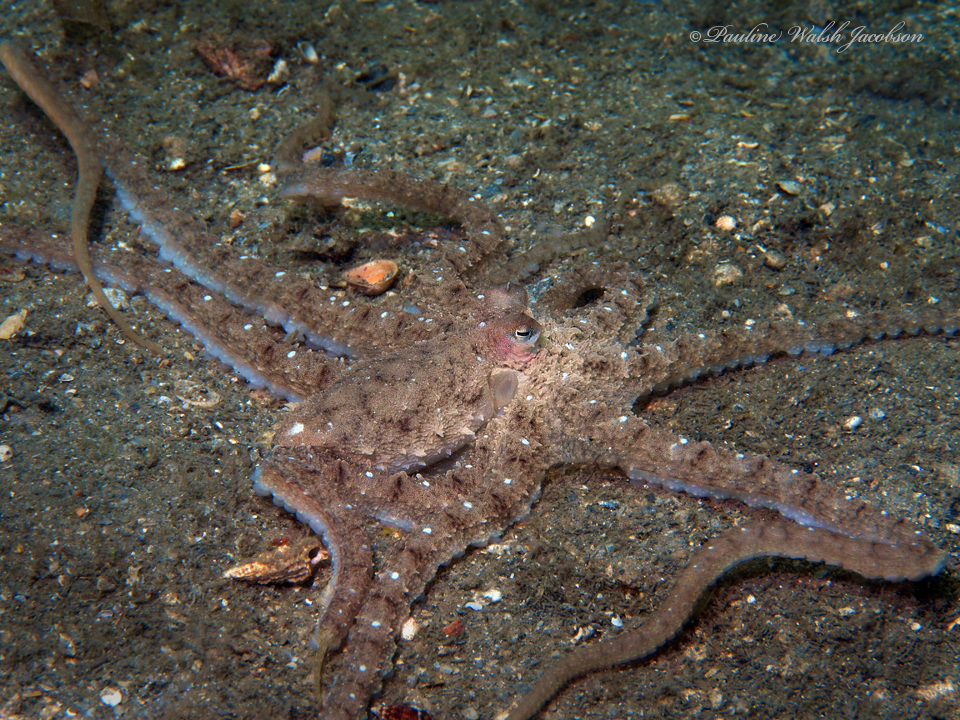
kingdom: Animalia
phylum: Mollusca
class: Cephalopoda
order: Octopoda
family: Octopodidae
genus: Macrotritopus
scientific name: Macrotritopus defilippi
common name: Lilliput longarm octopus
